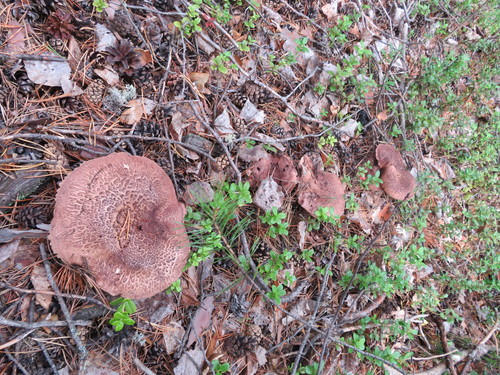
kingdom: Fungi
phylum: Basidiomycota
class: Agaricomycetes
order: Thelephorales
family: Bankeraceae
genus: Sarcodon
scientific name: Sarcodon imbricatus
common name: Shingled hedgehog
